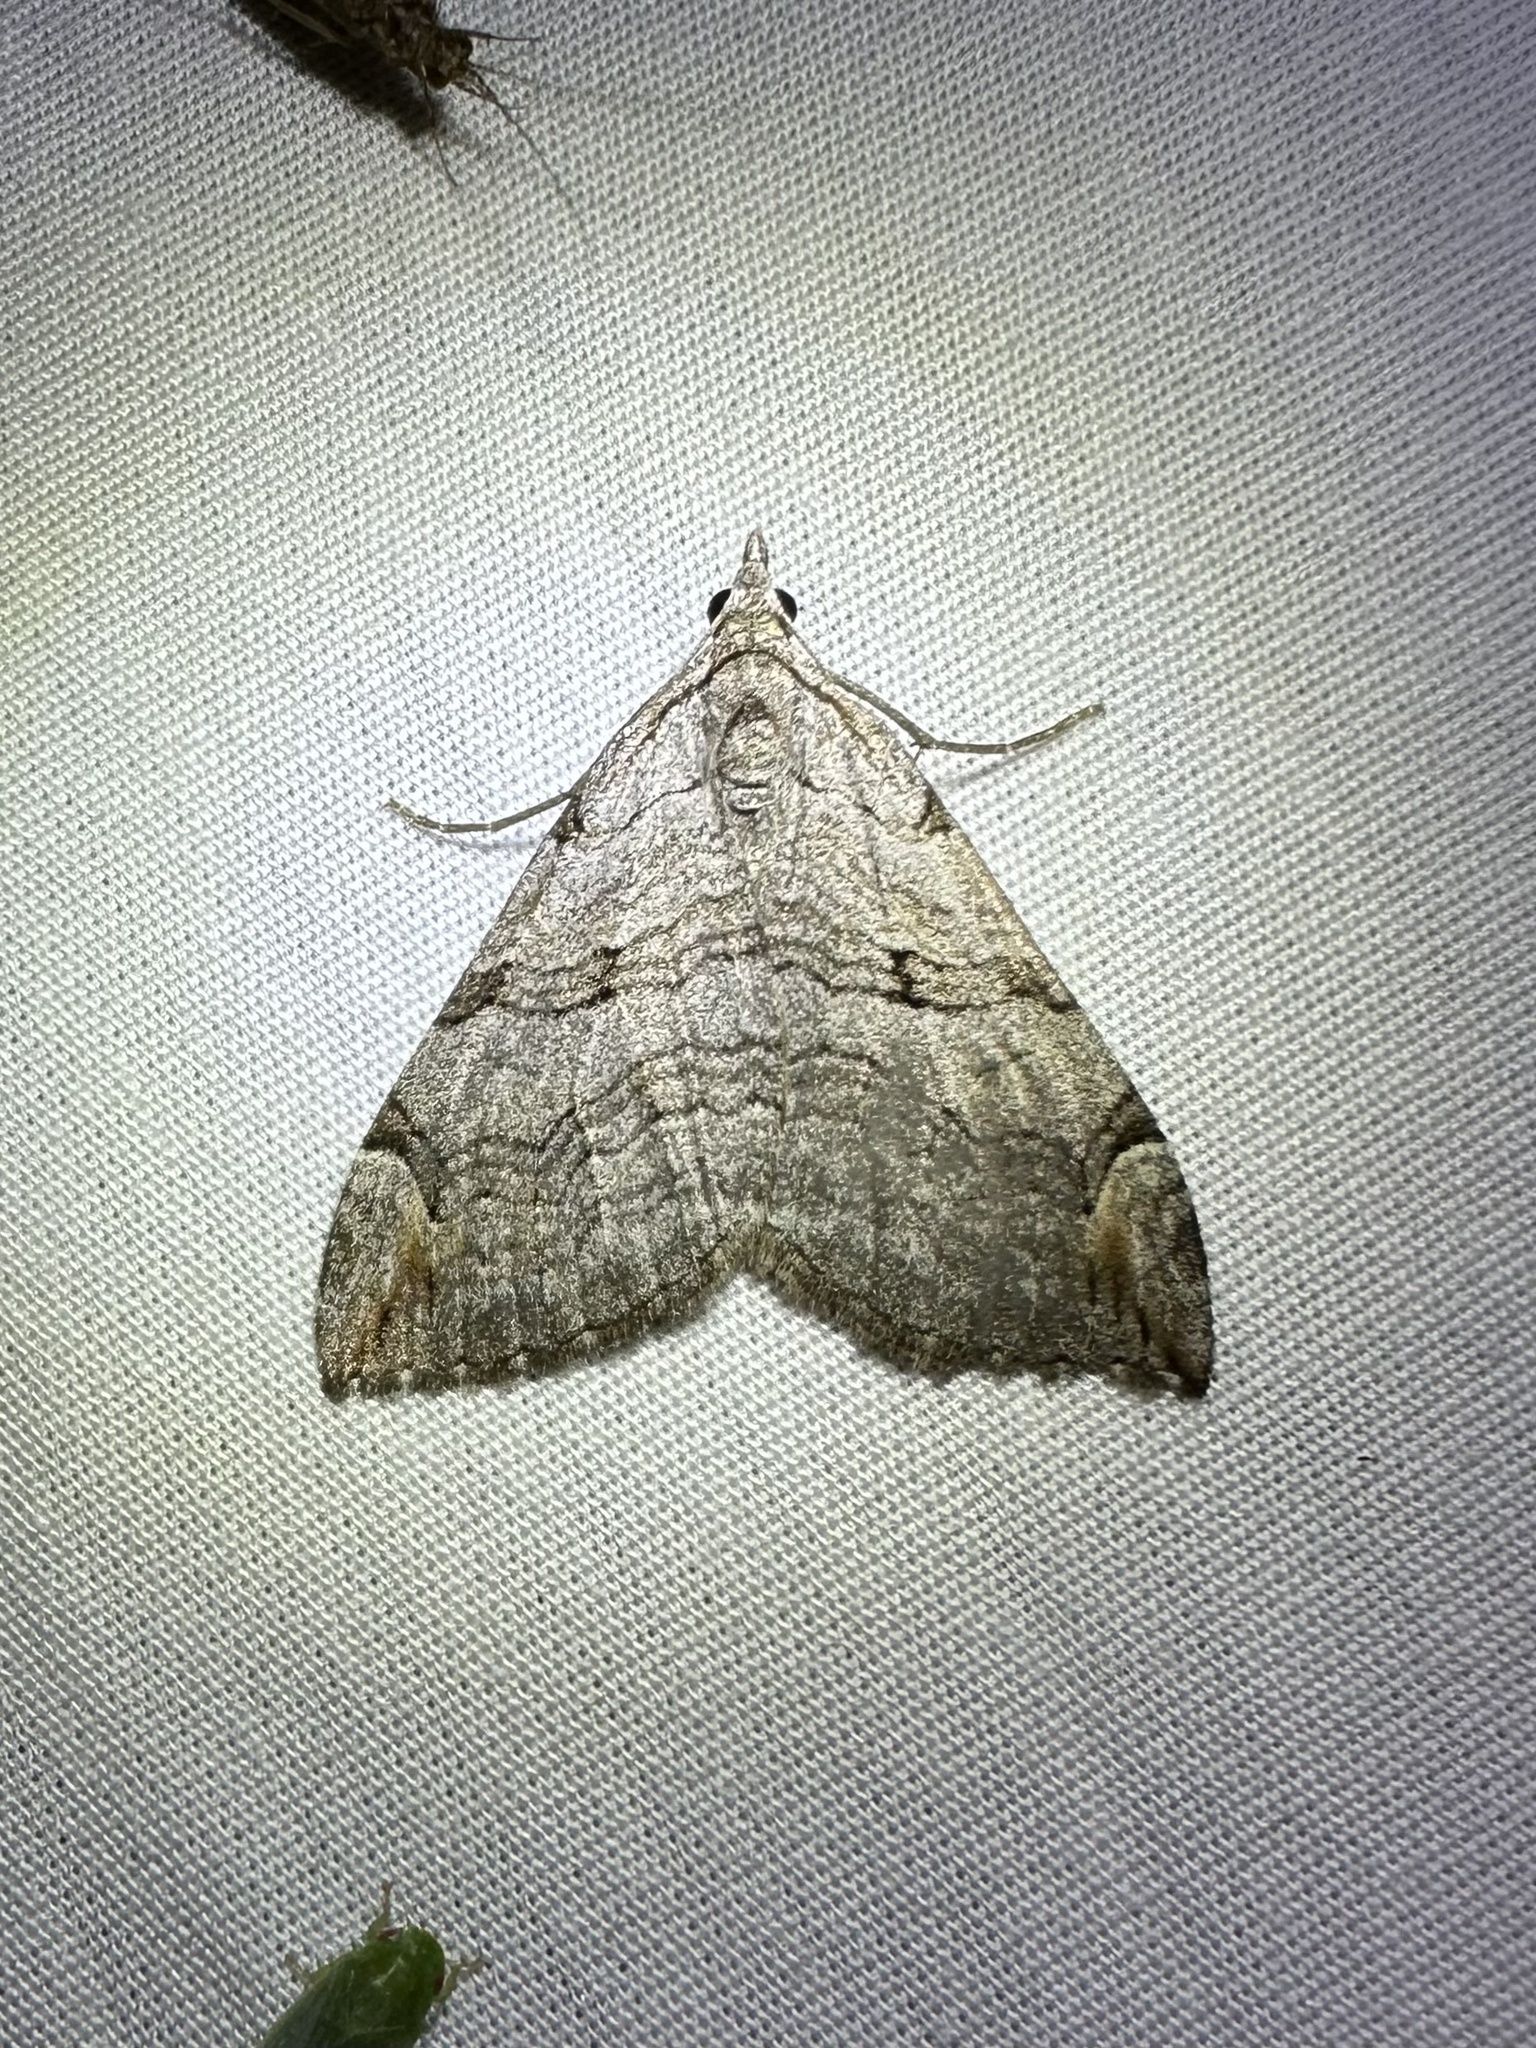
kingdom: Animalia
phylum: Arthropoda
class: Insecta
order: Lepidoptera
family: Geometridae
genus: Aplocera
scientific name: Aplocera plagiata
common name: Treble-bar
